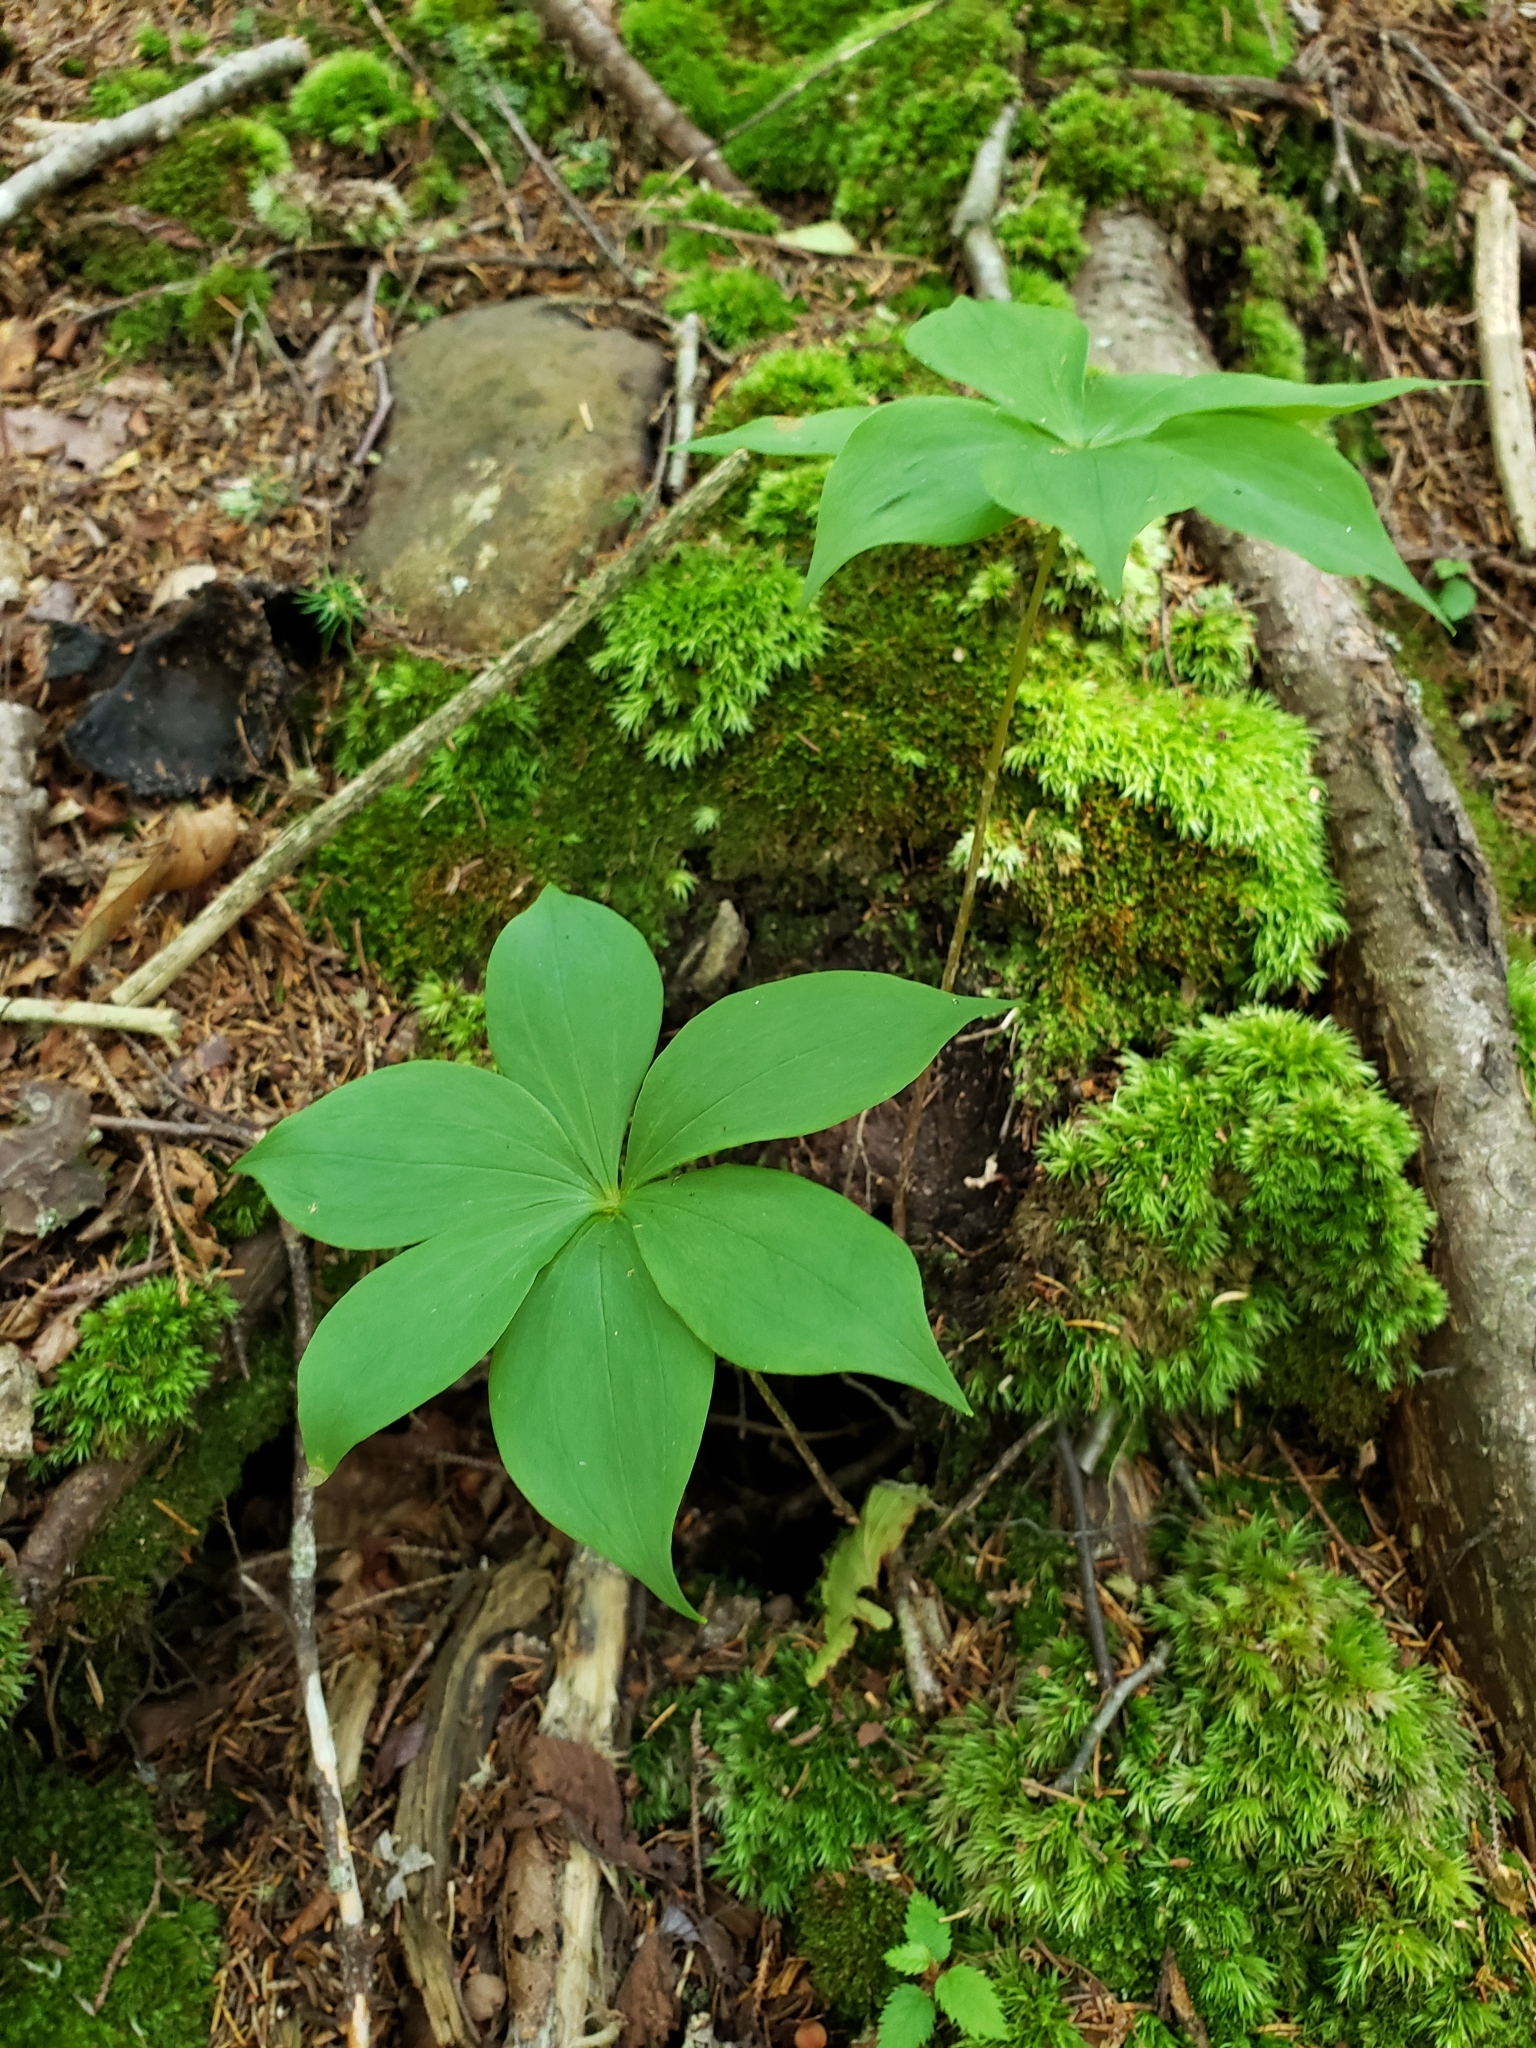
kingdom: Plantae
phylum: Tracheophyta
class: Liliopsida
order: Liliales
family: Liliaceae
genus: Medeola
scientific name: Medeola virginiana
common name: Indian cucumber-root
